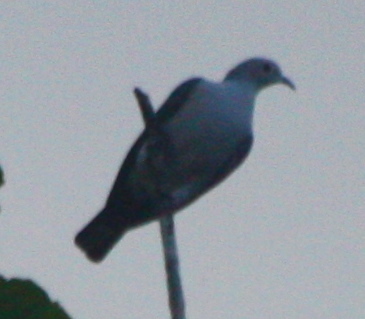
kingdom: Animalia
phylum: Chordata
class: Aves
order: Columbiformes
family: Columbidae
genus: Ducula
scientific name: Ducula aenea
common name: Green imperial pigeon
